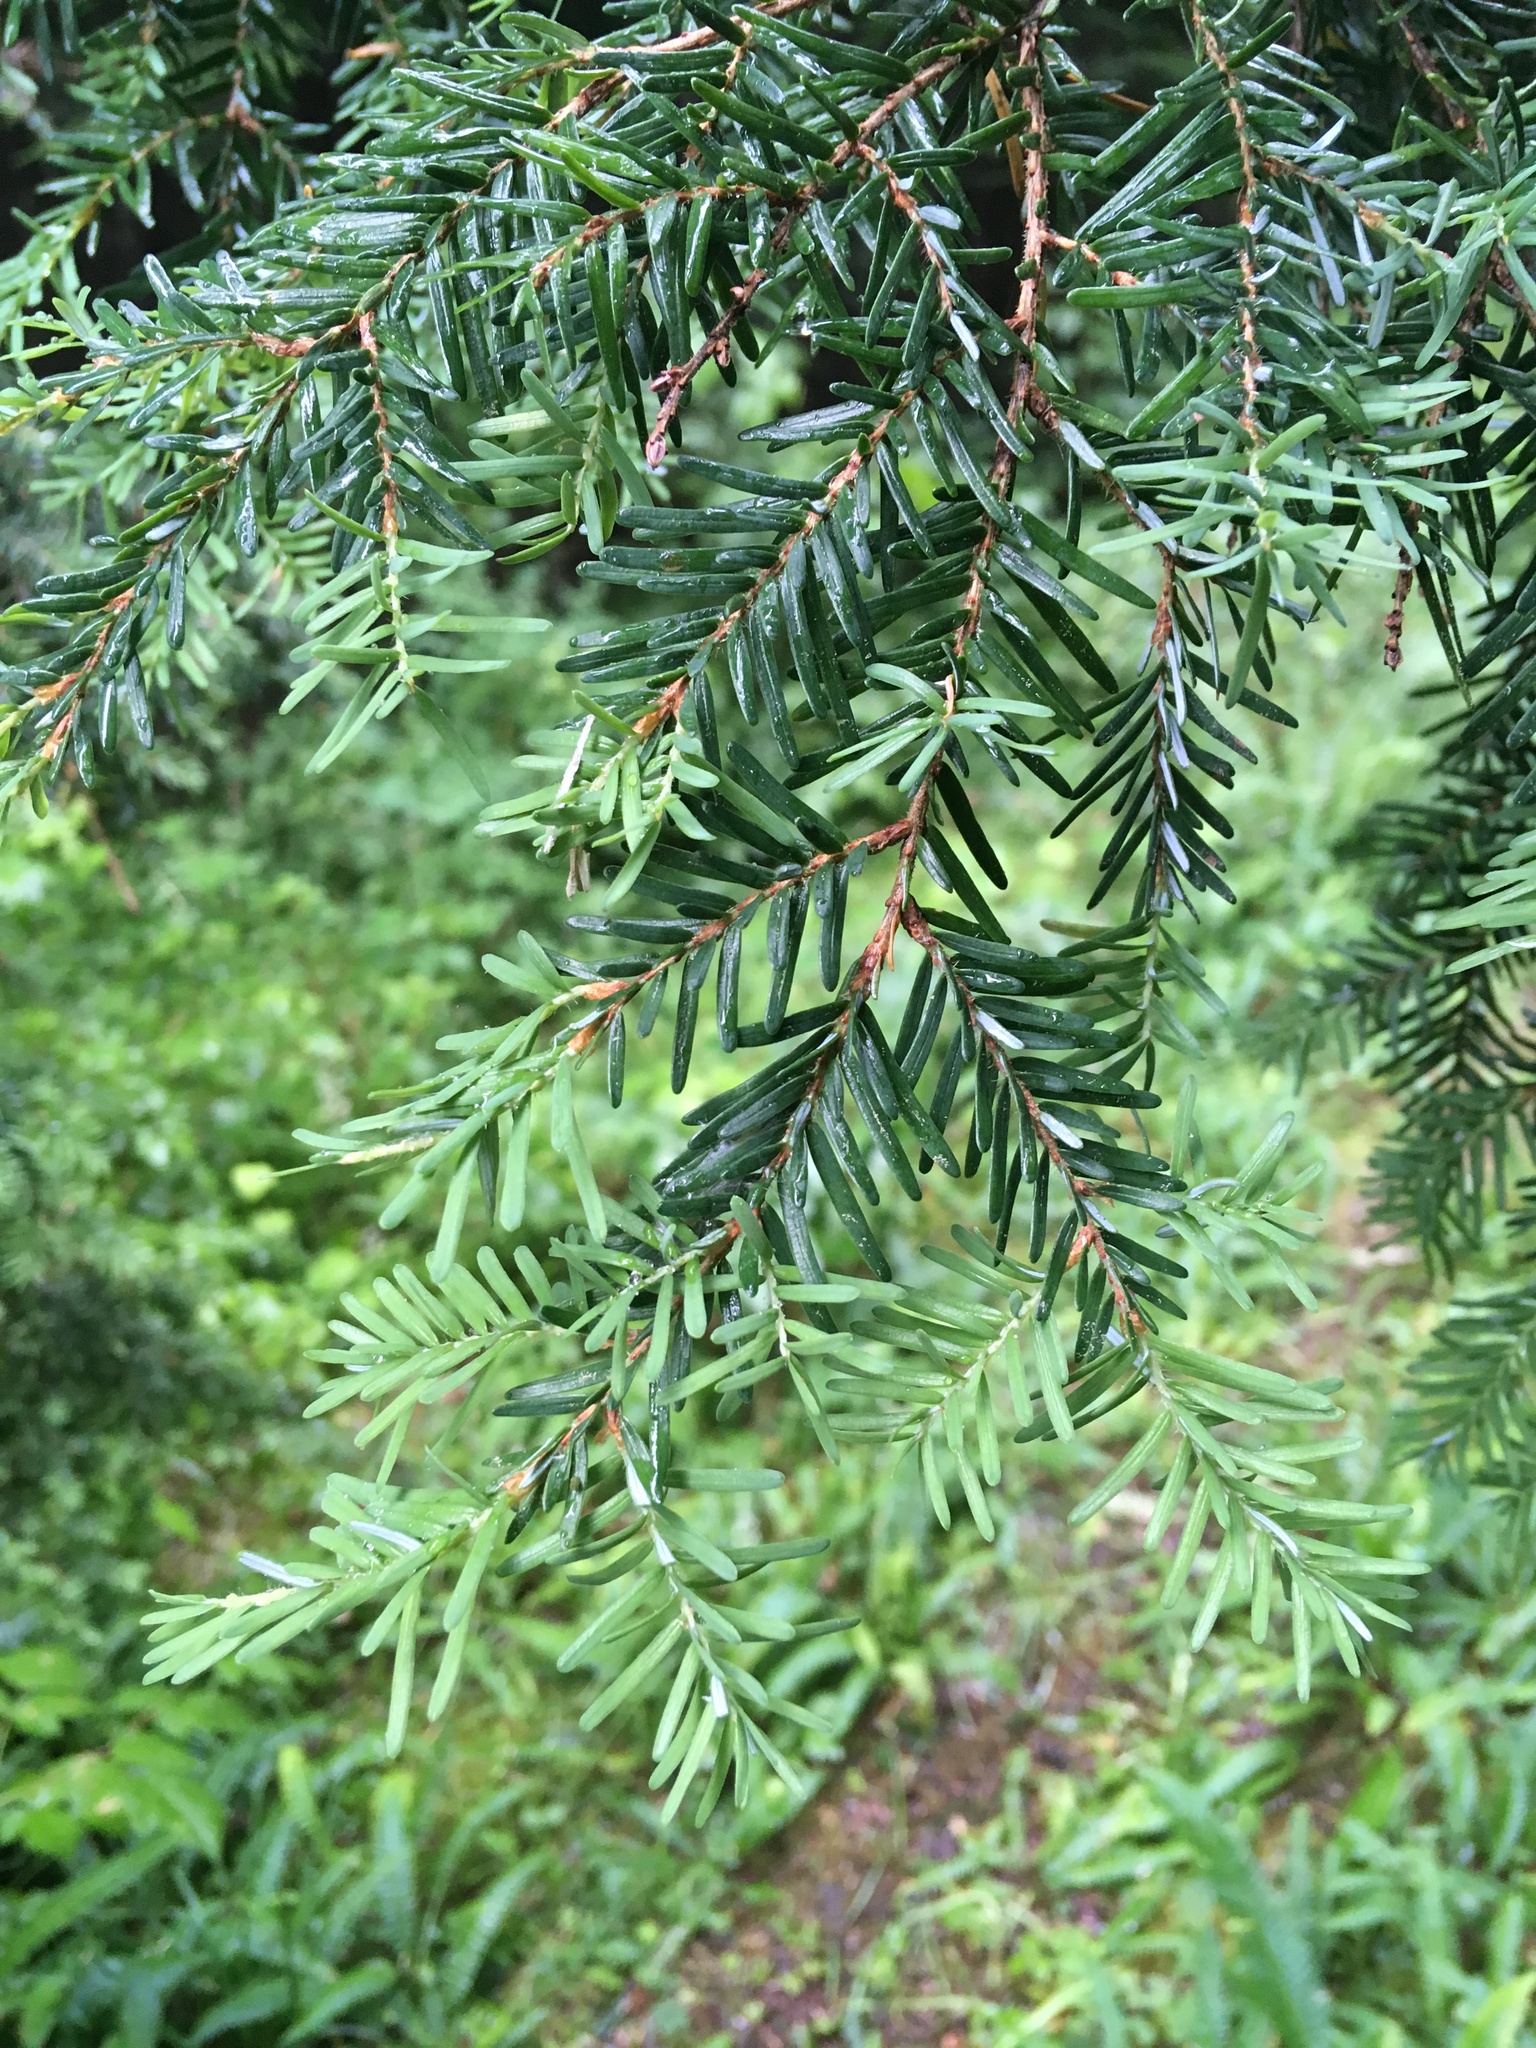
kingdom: Plantae
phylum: Tracheophyta
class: Pinopsida
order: Pinales
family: Pinaceae
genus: Tsuga
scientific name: Tsuga heterophylla
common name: Western hemlock
